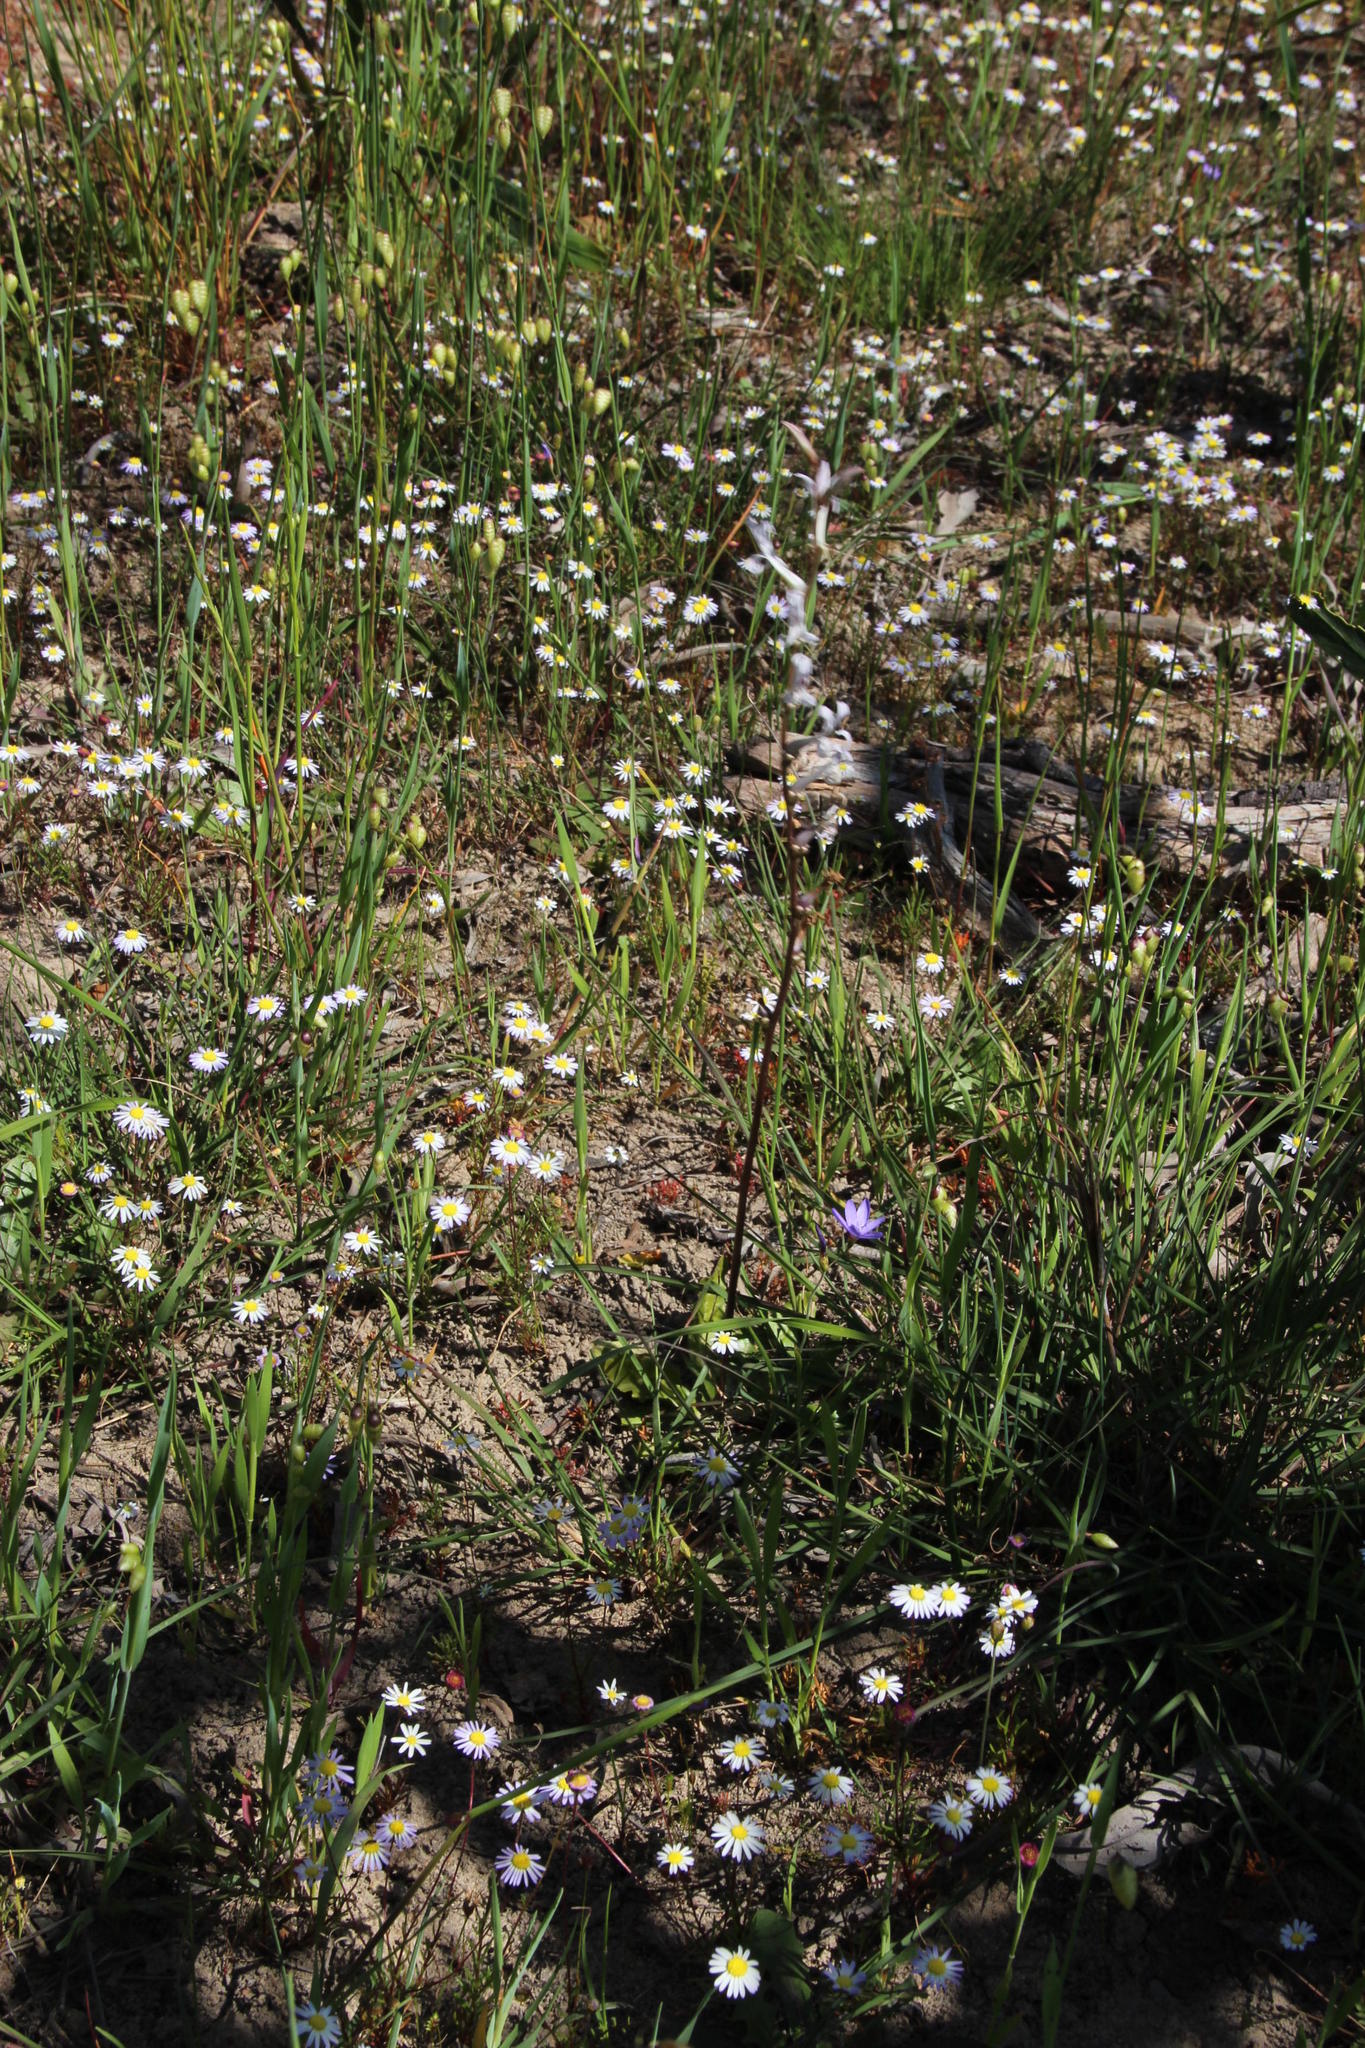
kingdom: Plantae
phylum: Tracheophyta
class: Magnoliopsida
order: Asterales
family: Campanulaceae
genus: Cyphia
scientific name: Cyphia phyteuma
